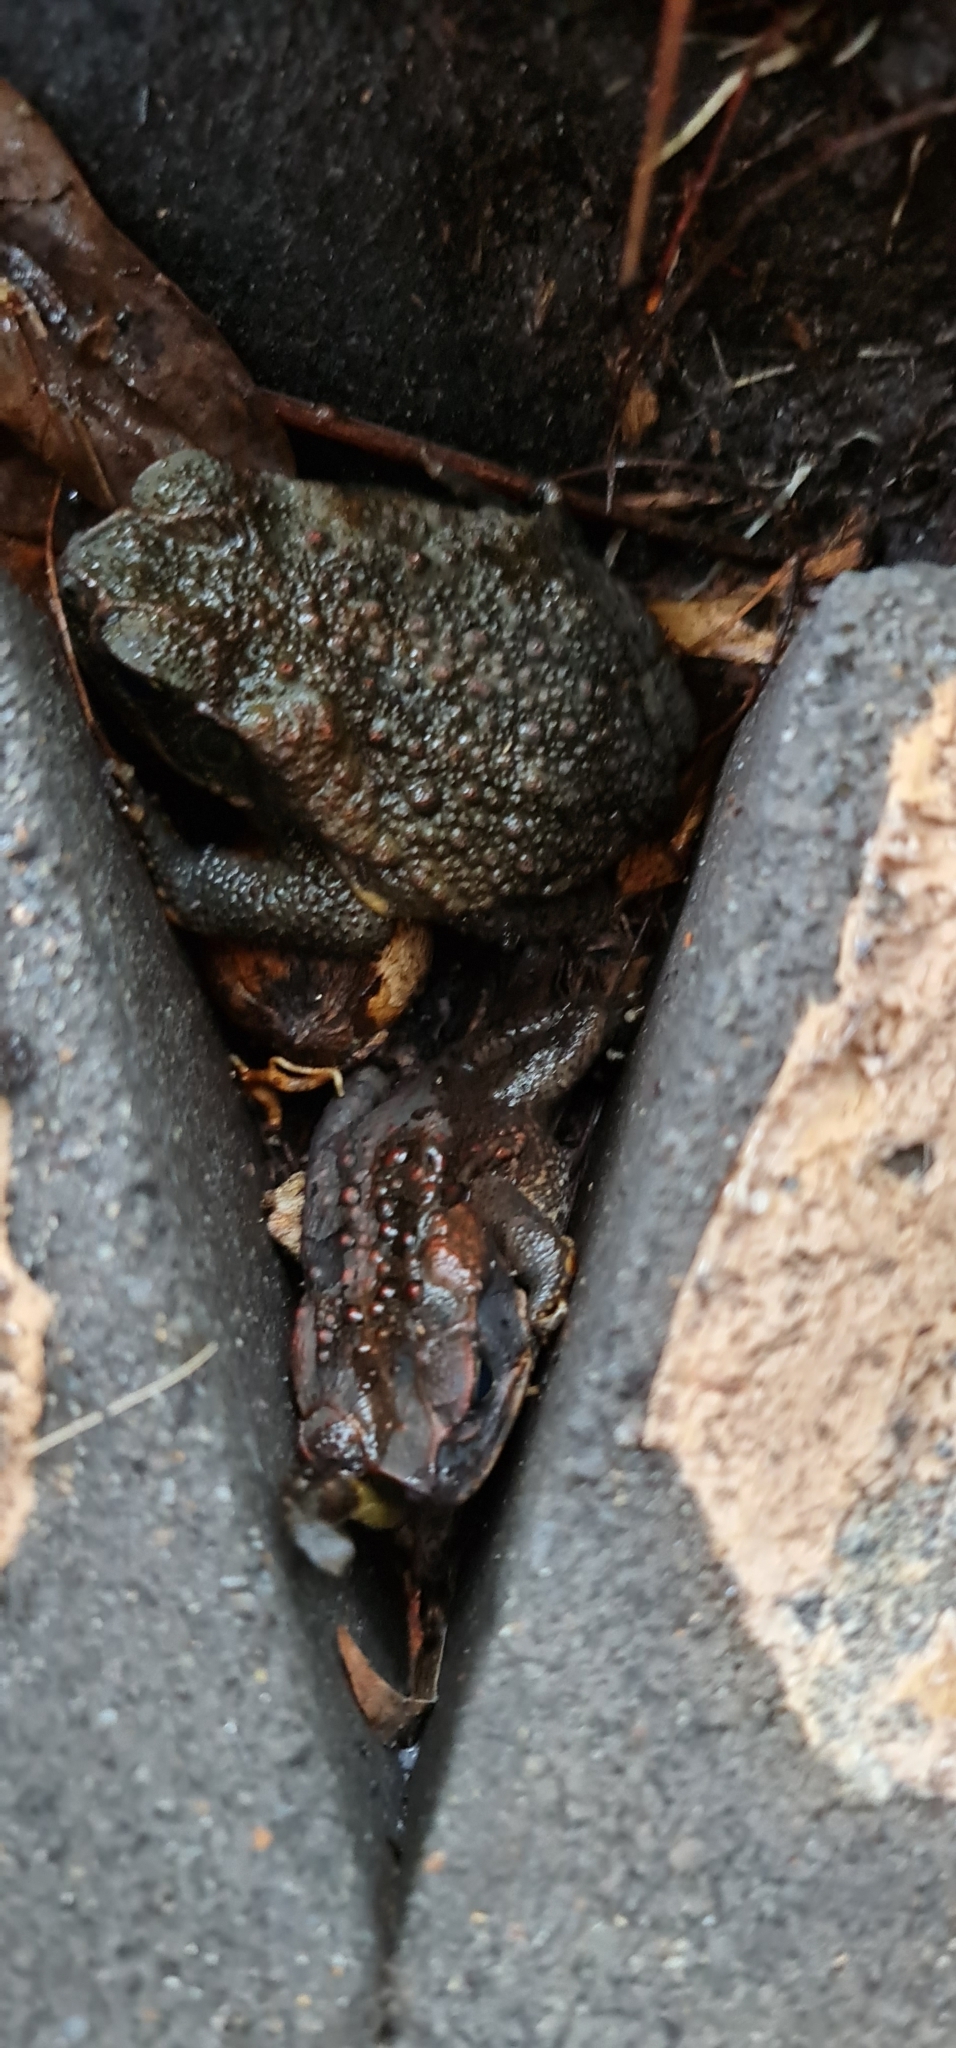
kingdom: Animalia
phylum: Chordata
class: Amphibia
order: Anura
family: Bufonidae
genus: Rhinella
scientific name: Rhinella marina
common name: Cane toad
